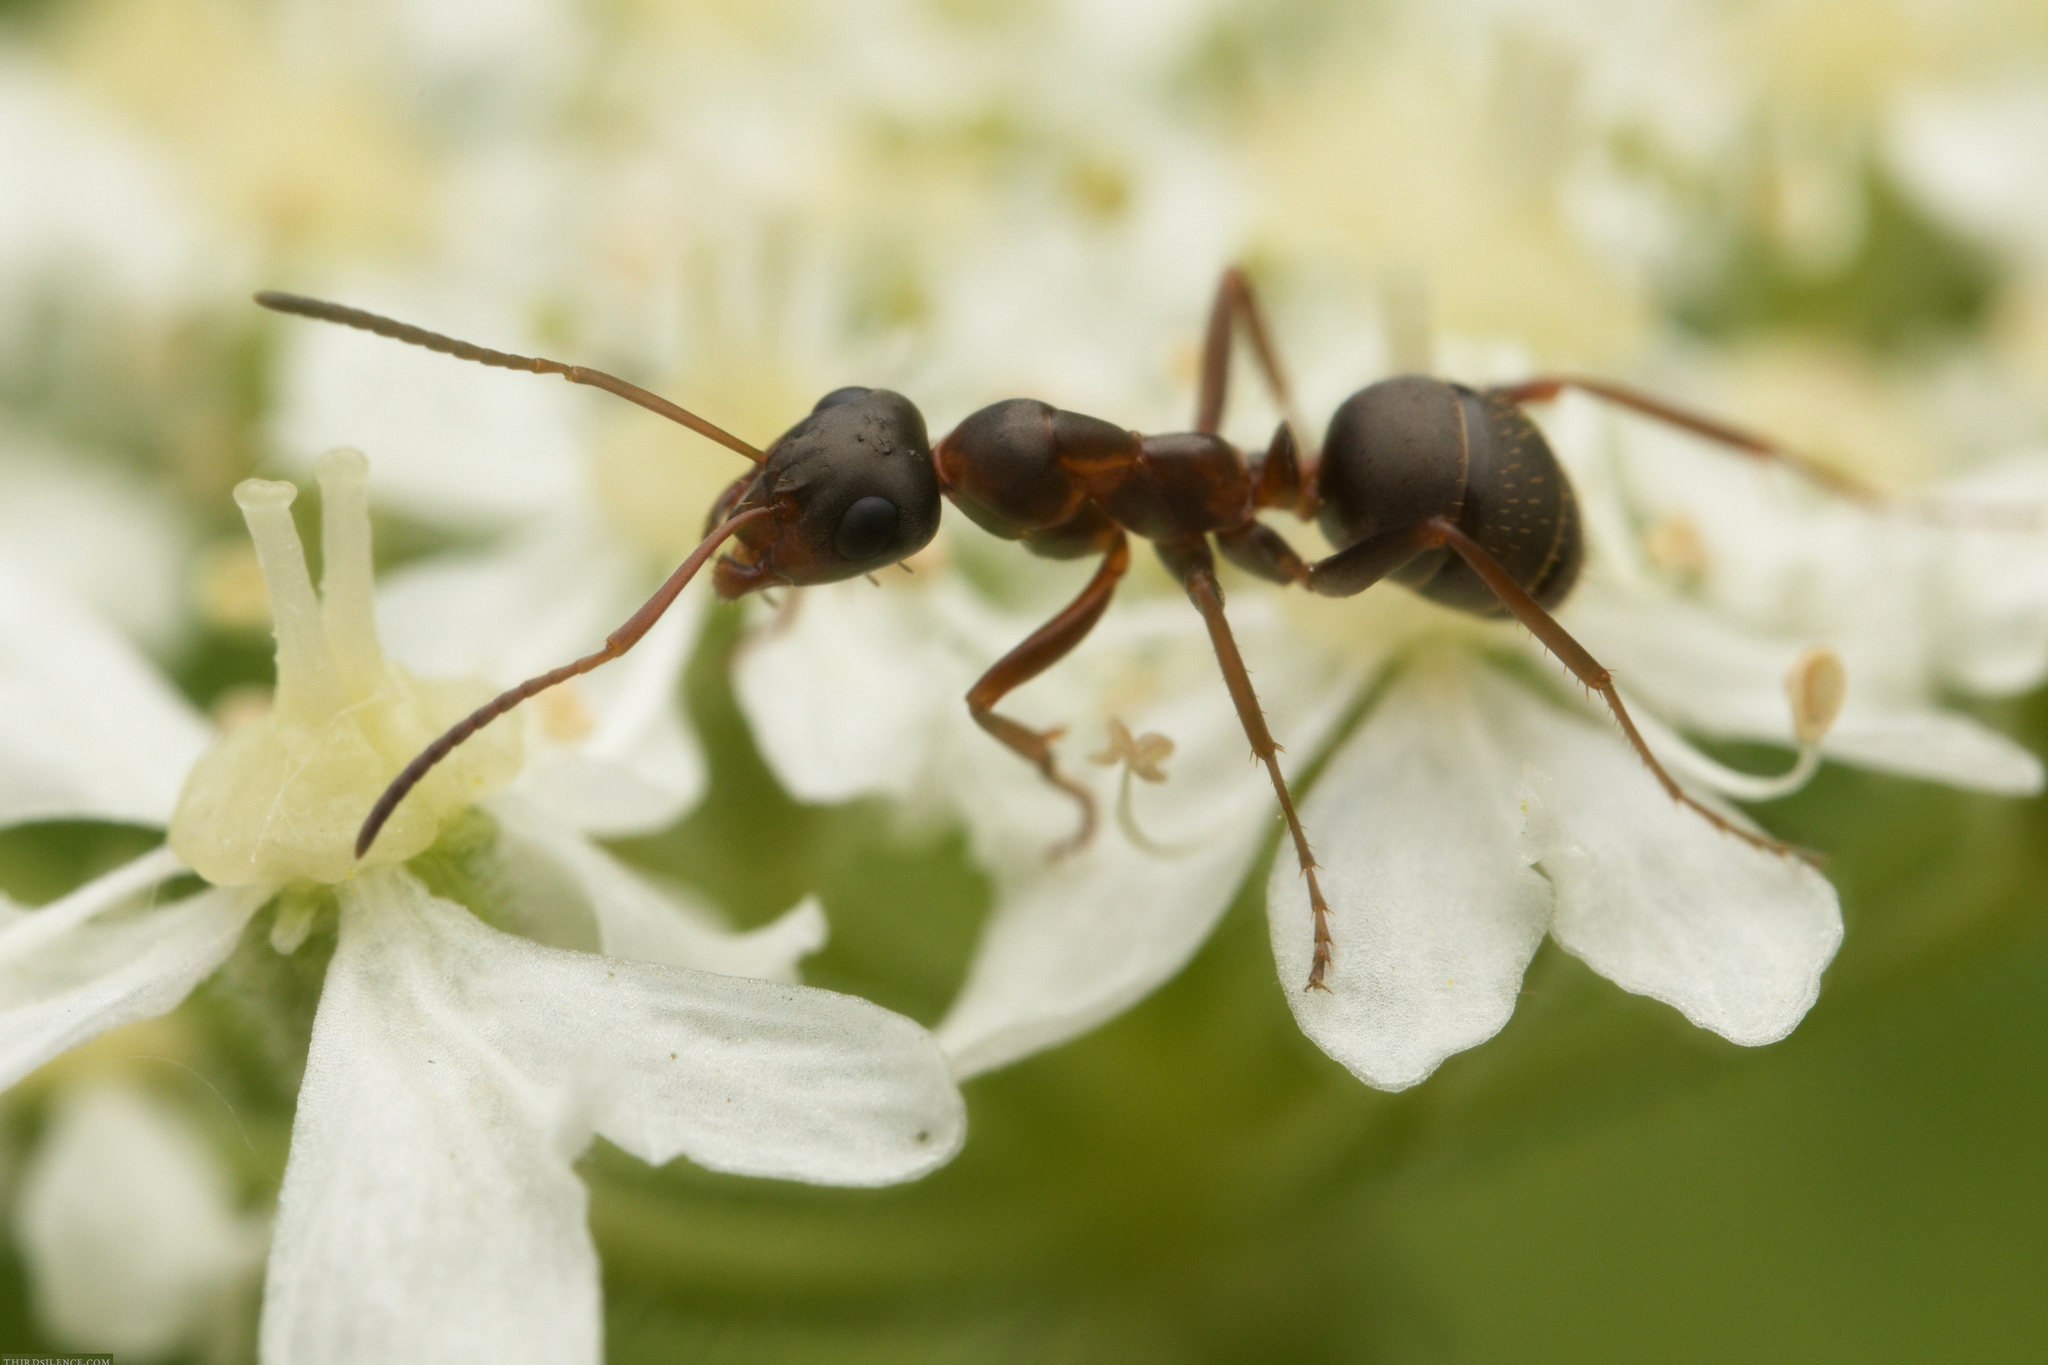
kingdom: Animalia
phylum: Arthropoda
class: Insecta
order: Hymenoptera
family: Formicidae
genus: Formica
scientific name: Formica cunicularia
